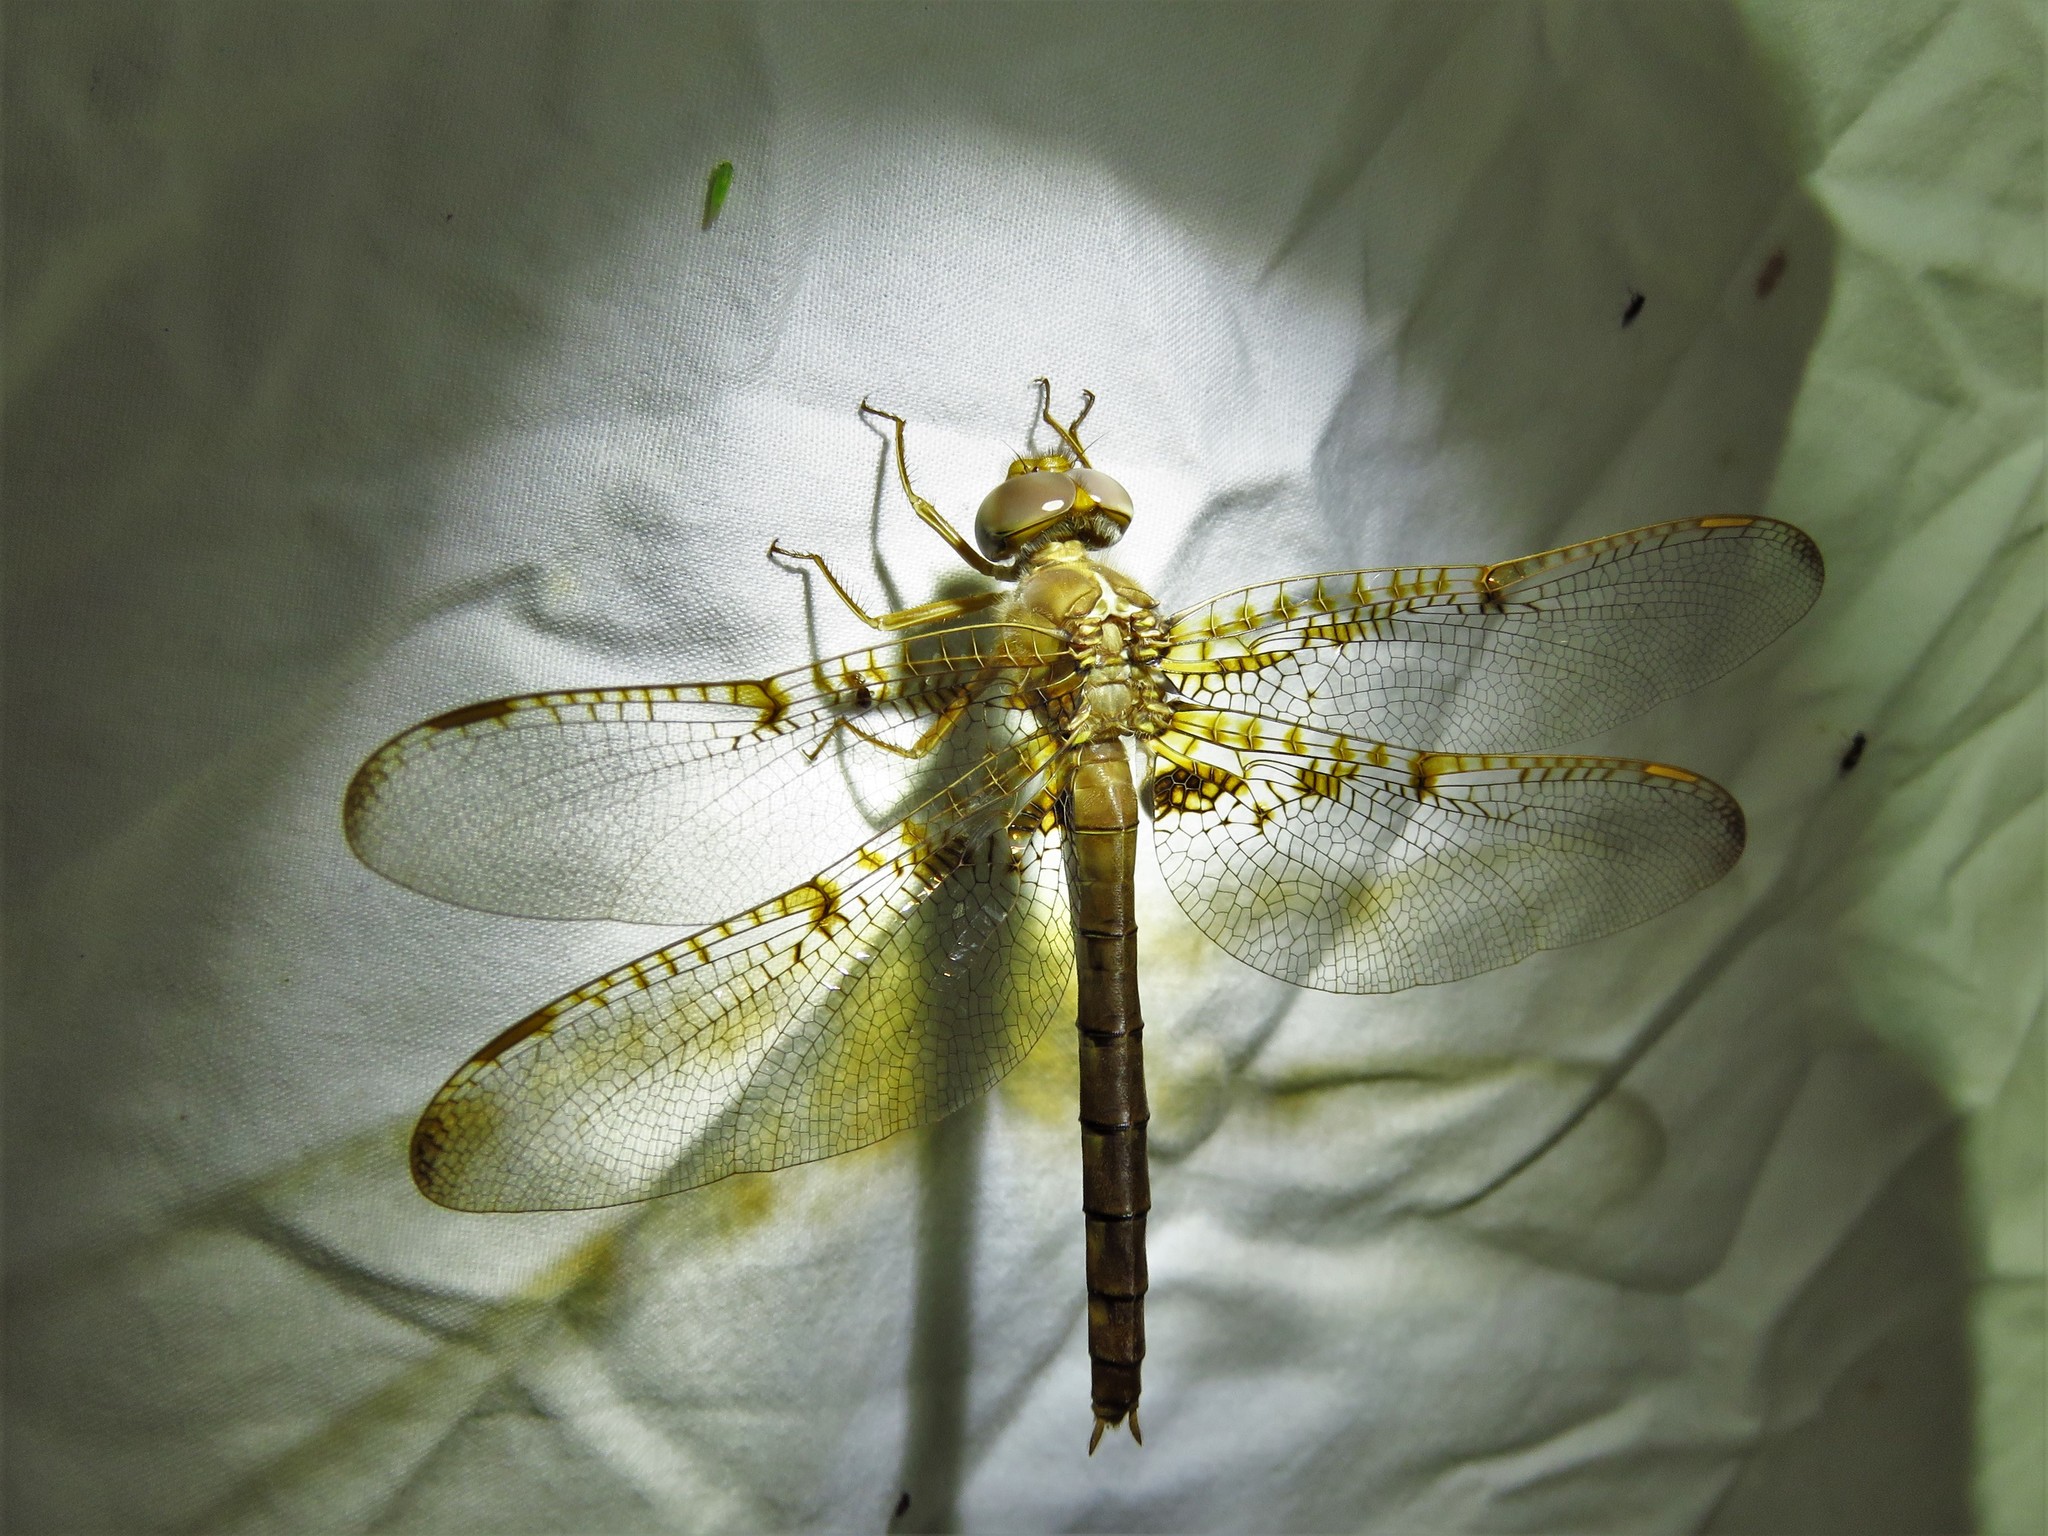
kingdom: Animalia
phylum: Arthropoda
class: Insecta
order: Odonata
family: Corduliidae
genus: Neurocordulia
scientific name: Neurocordulia xanthosoma
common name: Orange shadowdragon
